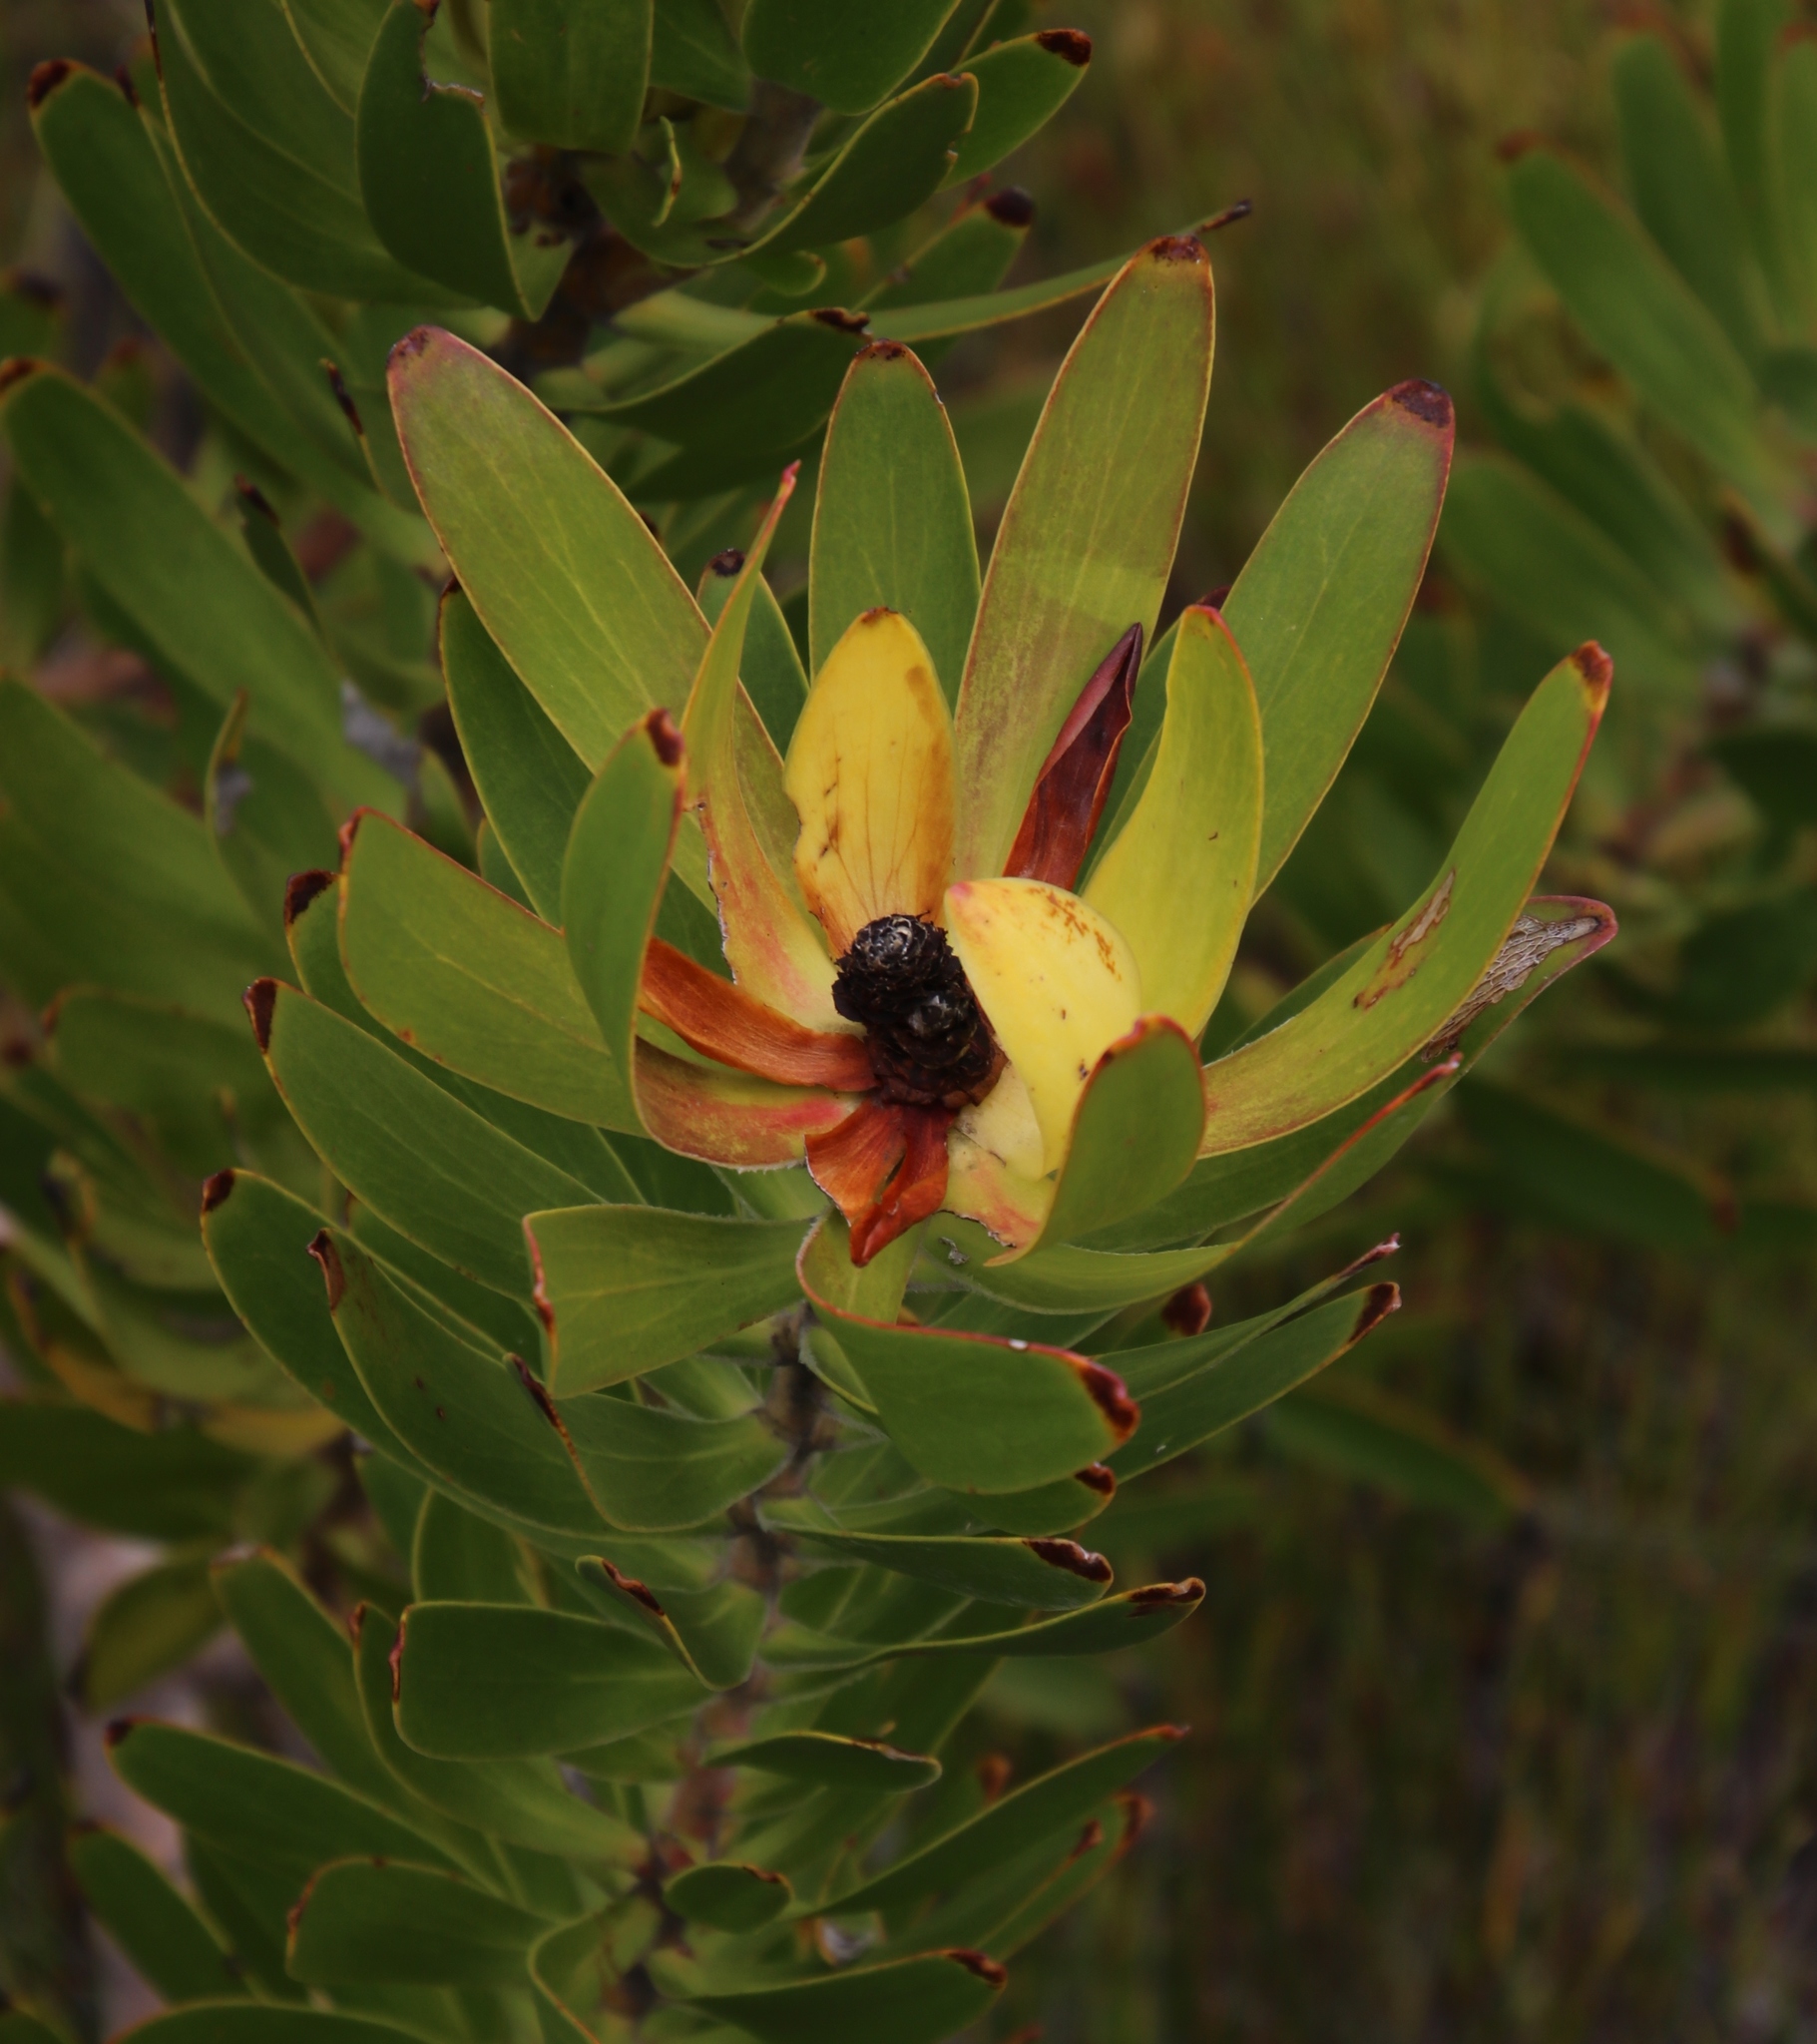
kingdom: Plantae
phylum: Tracheophyta
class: Magnoliopsida
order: Proteales
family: Proteaceae
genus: Leucadendron
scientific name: Leucadendron laureolum
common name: Golden sunshinebush
